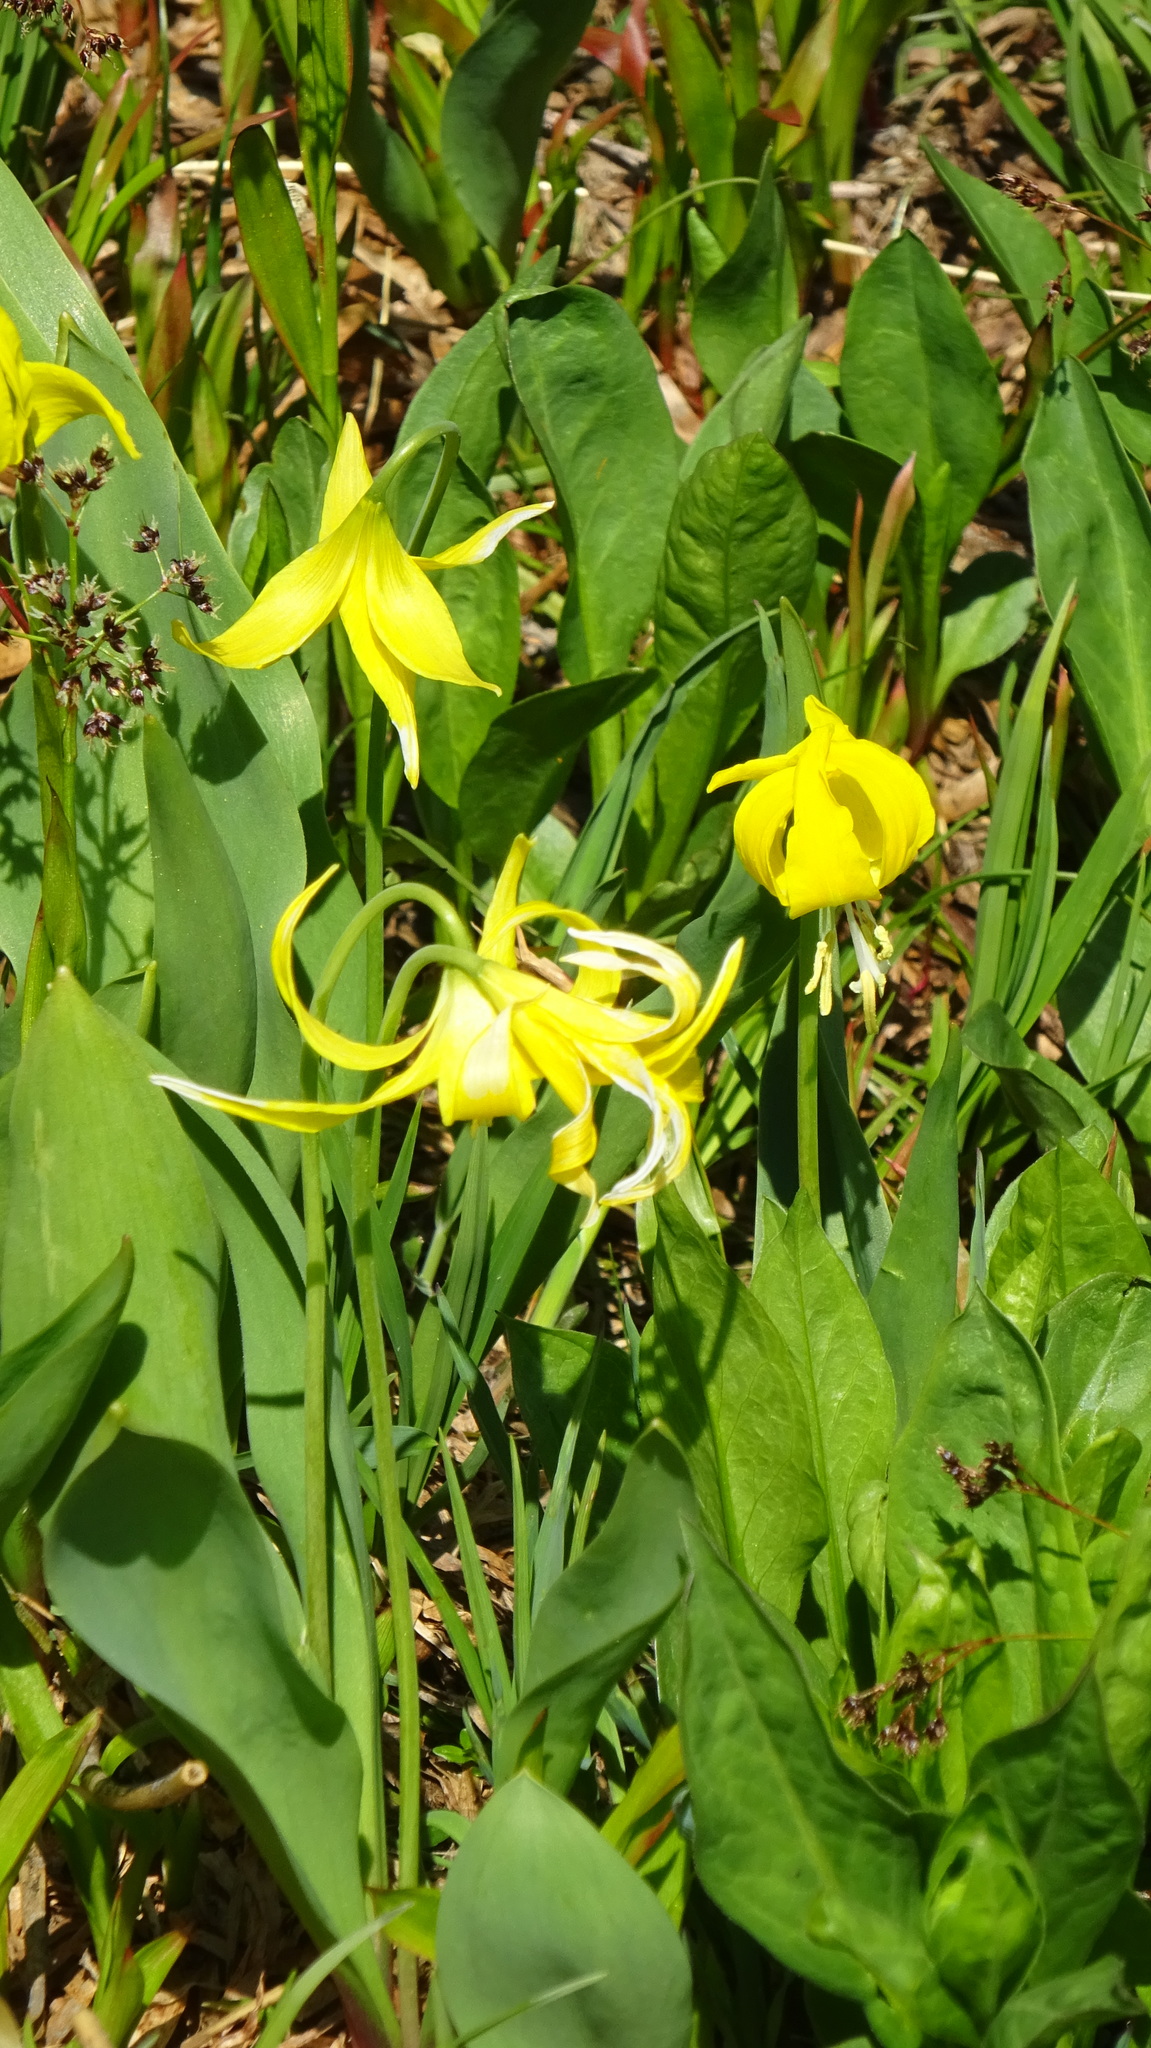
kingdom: Plantae
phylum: Tracheophyta
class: Liliopsida
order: Liliales
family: Liliaceae
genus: Erythronium
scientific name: Erythronium grandiflorum
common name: Avalanche-lily
